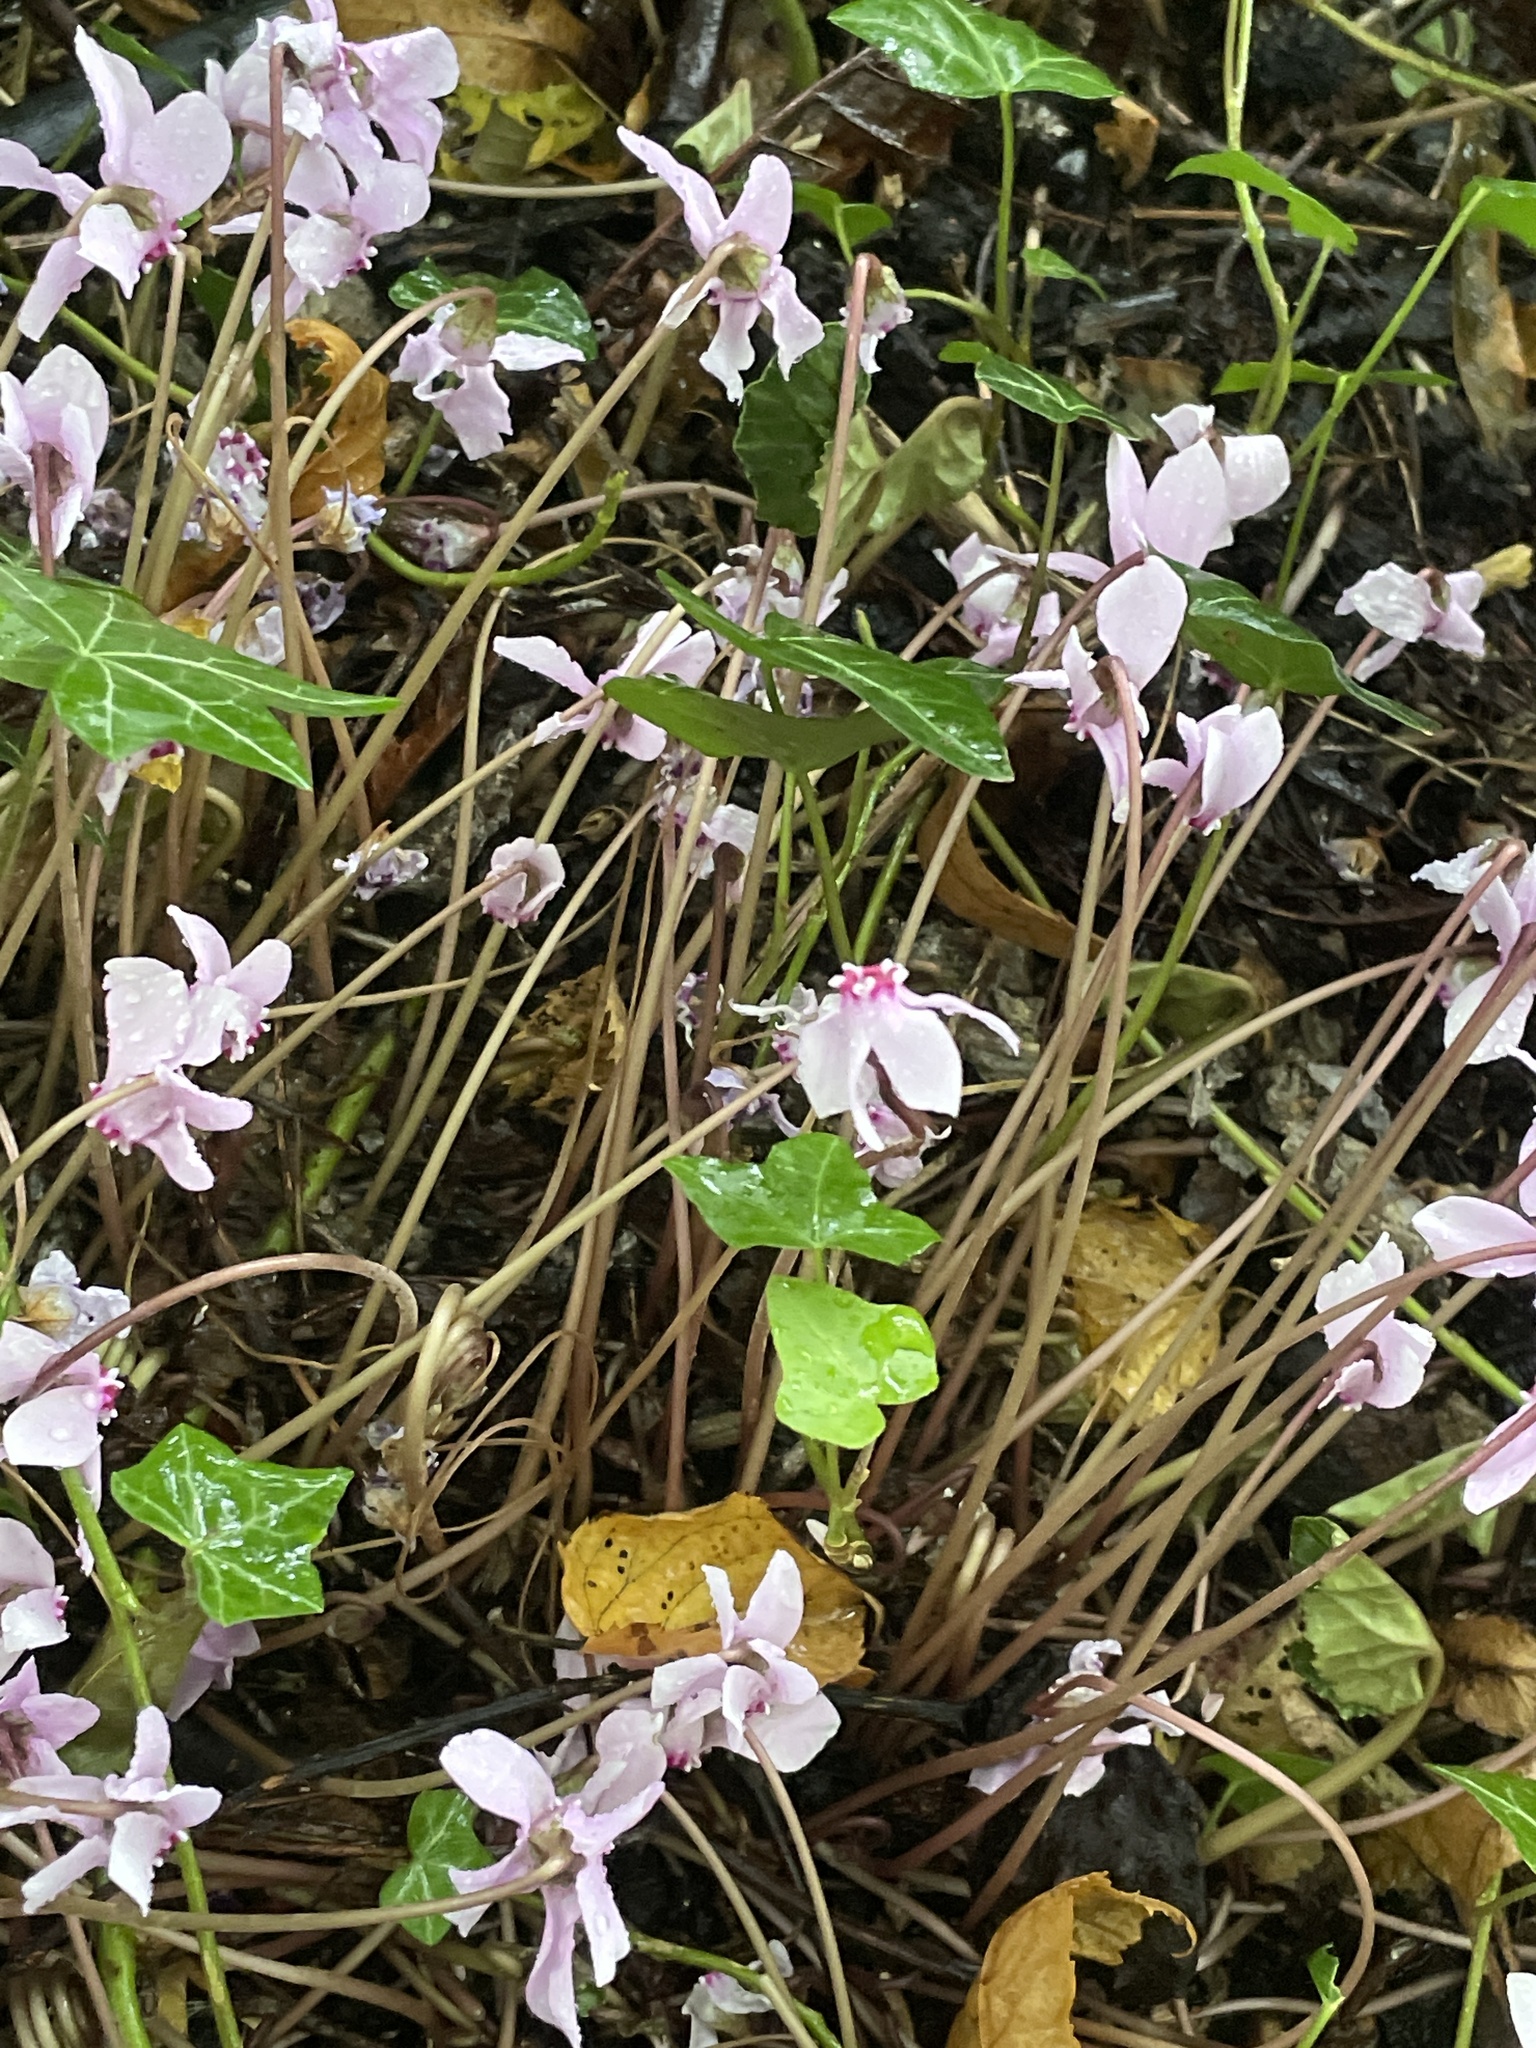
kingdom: Plantae
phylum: Tracheophyta
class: Magnoliopsida
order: Ericales
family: Primulaceae
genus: Cyclamen
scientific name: Cyclamen hederifolium
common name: Sowbread
